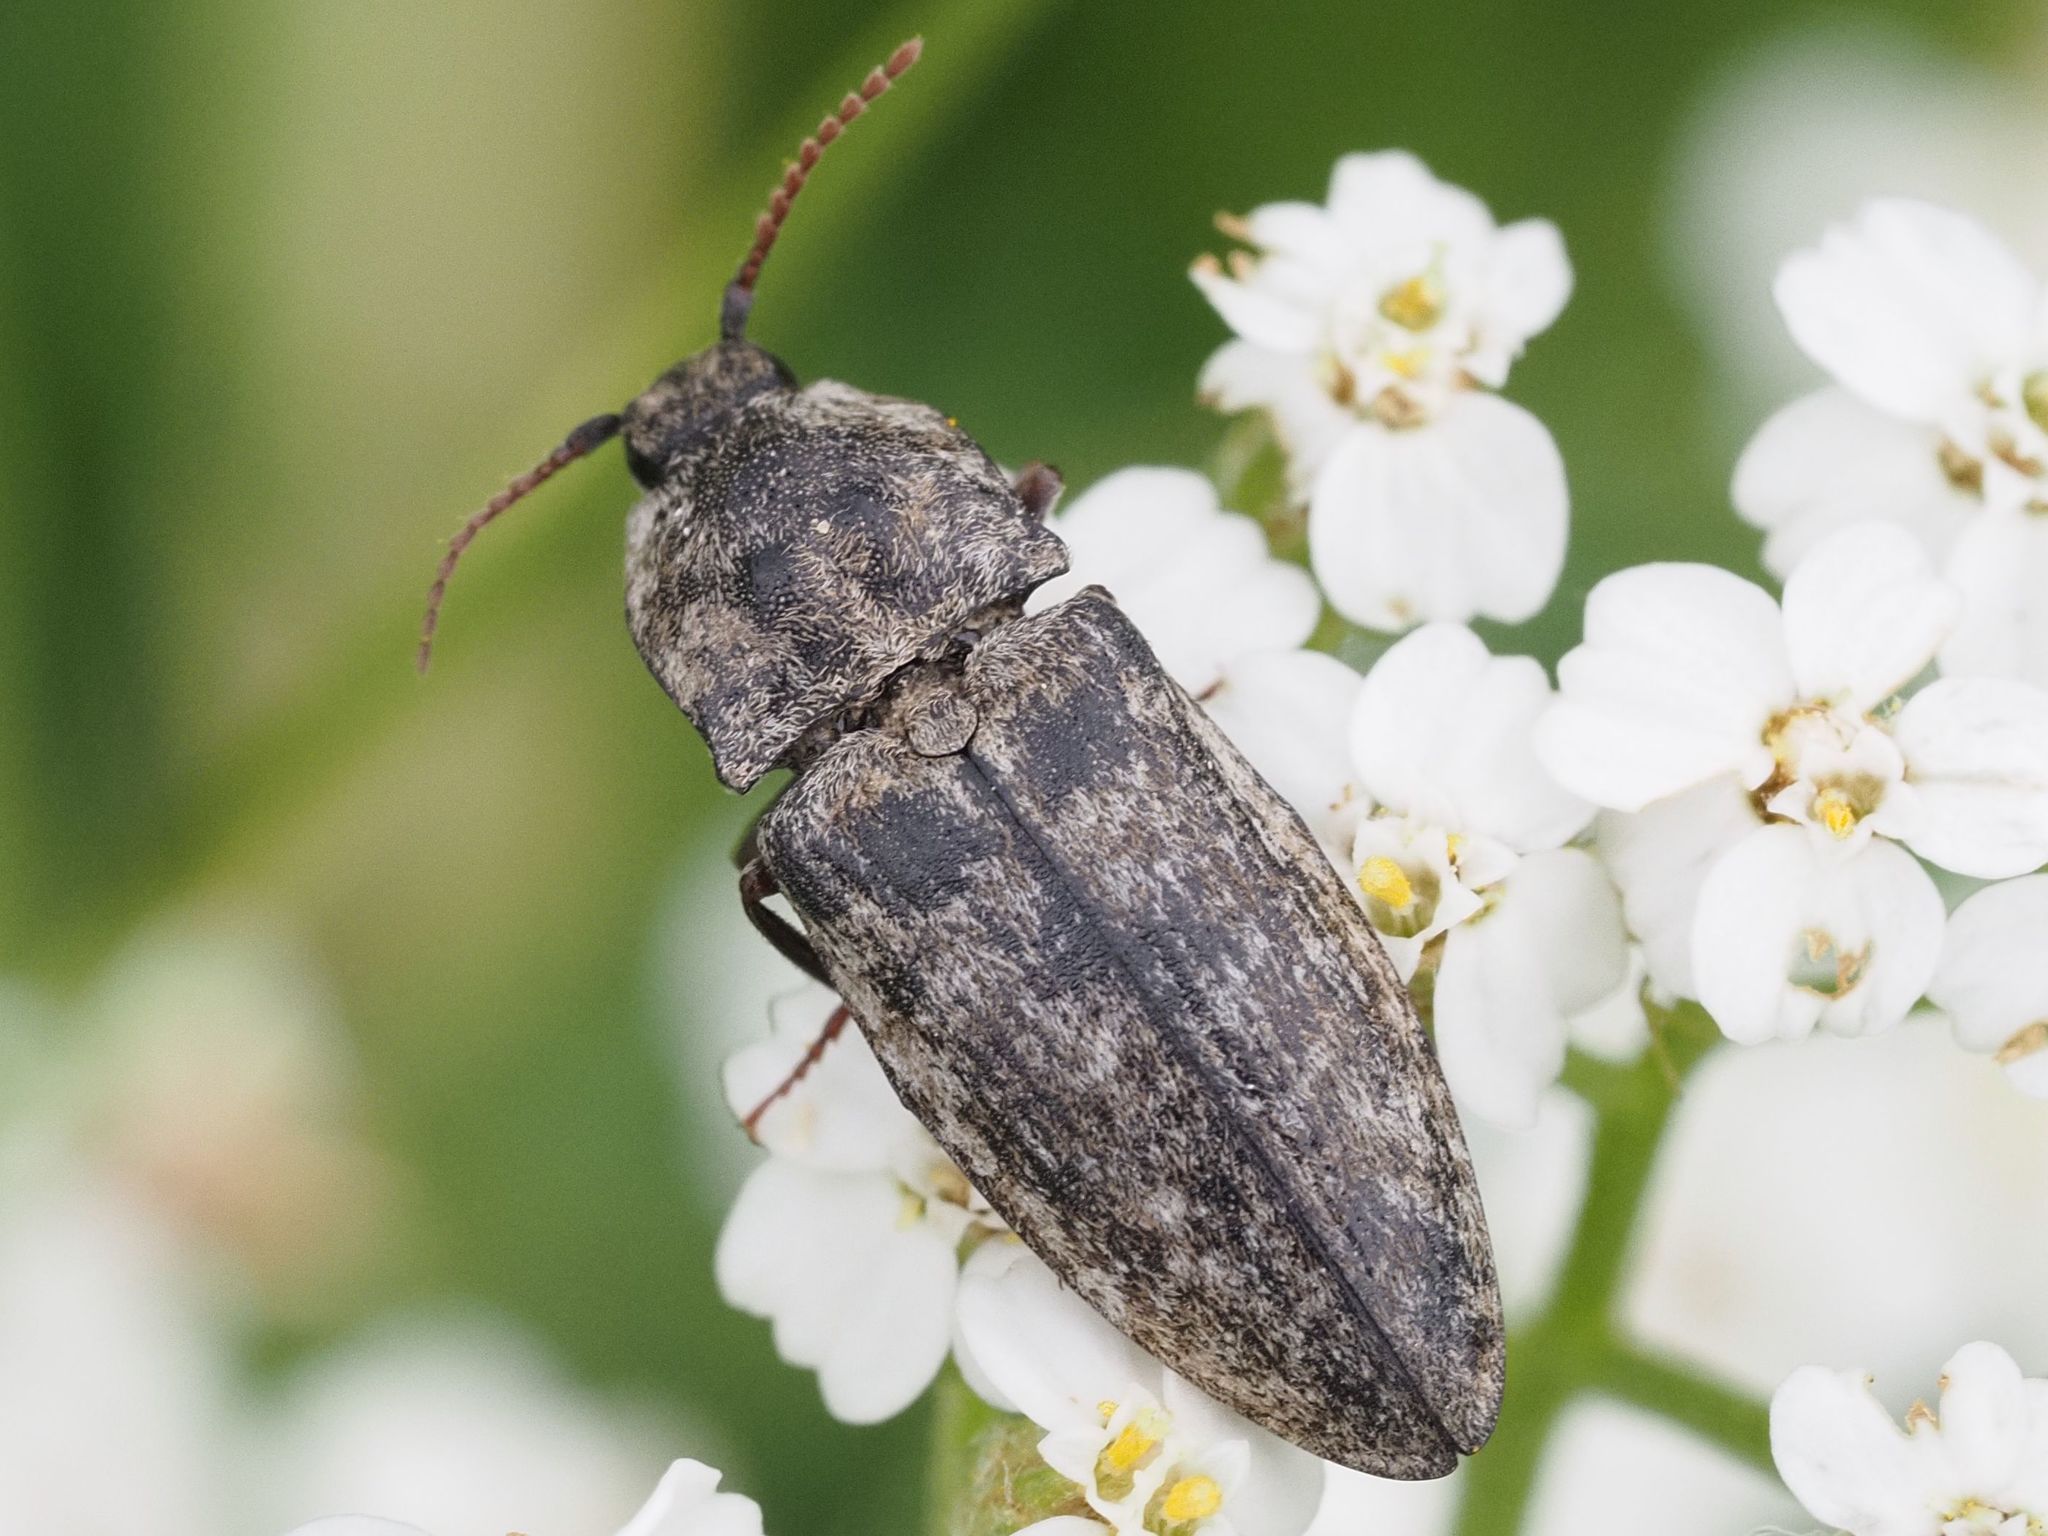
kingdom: Animalia
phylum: Arthropoda
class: Insecta
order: Coleoptera
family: Elateridae
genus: Agrypnus
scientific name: Agrypnus murinus
